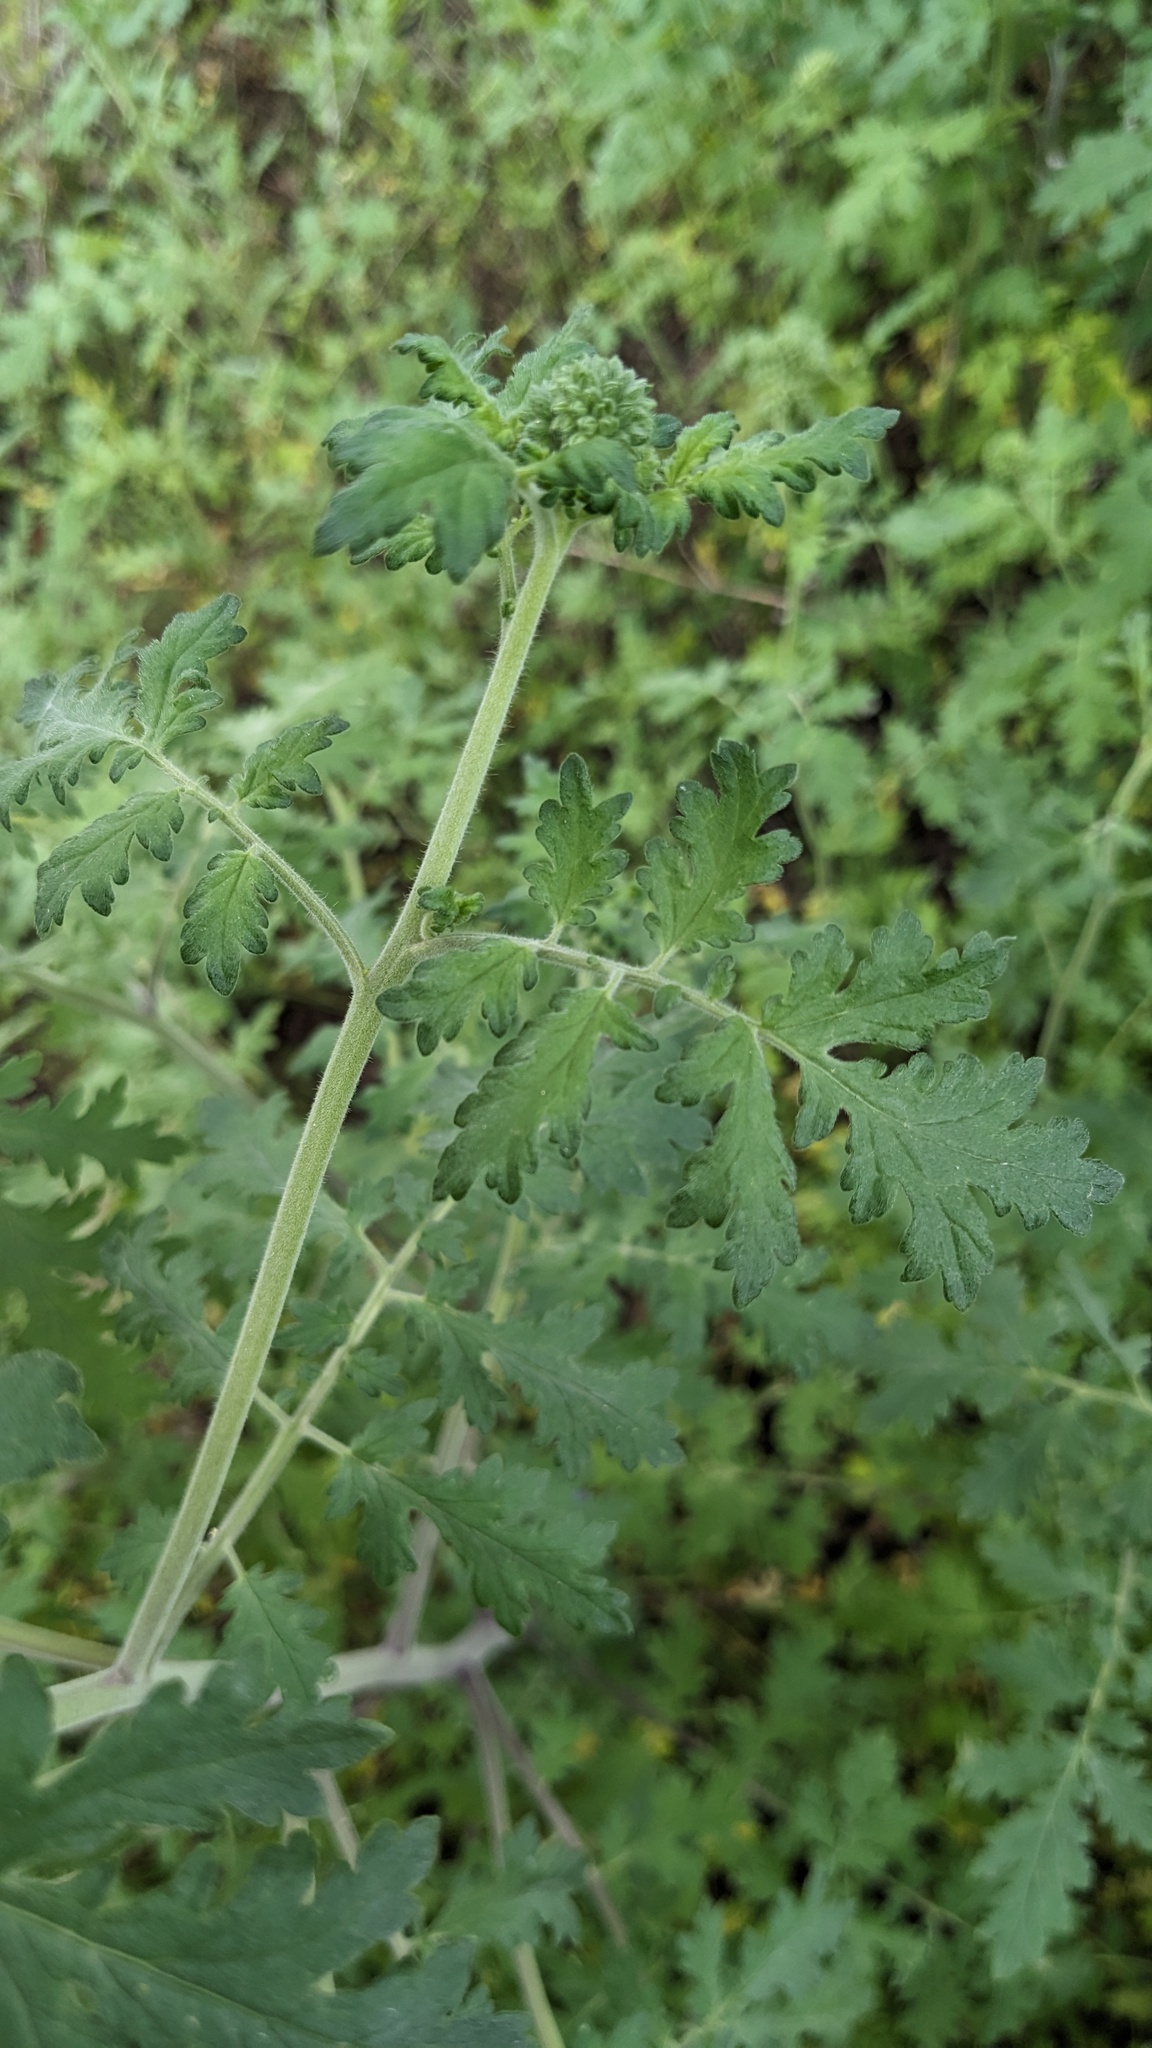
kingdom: Plantae
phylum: Tracheophyta
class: Magnoliopsida
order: Boraginales
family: Hydrophyllaceae
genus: Phacelia
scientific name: Phacelia congesta
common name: Blue curls
